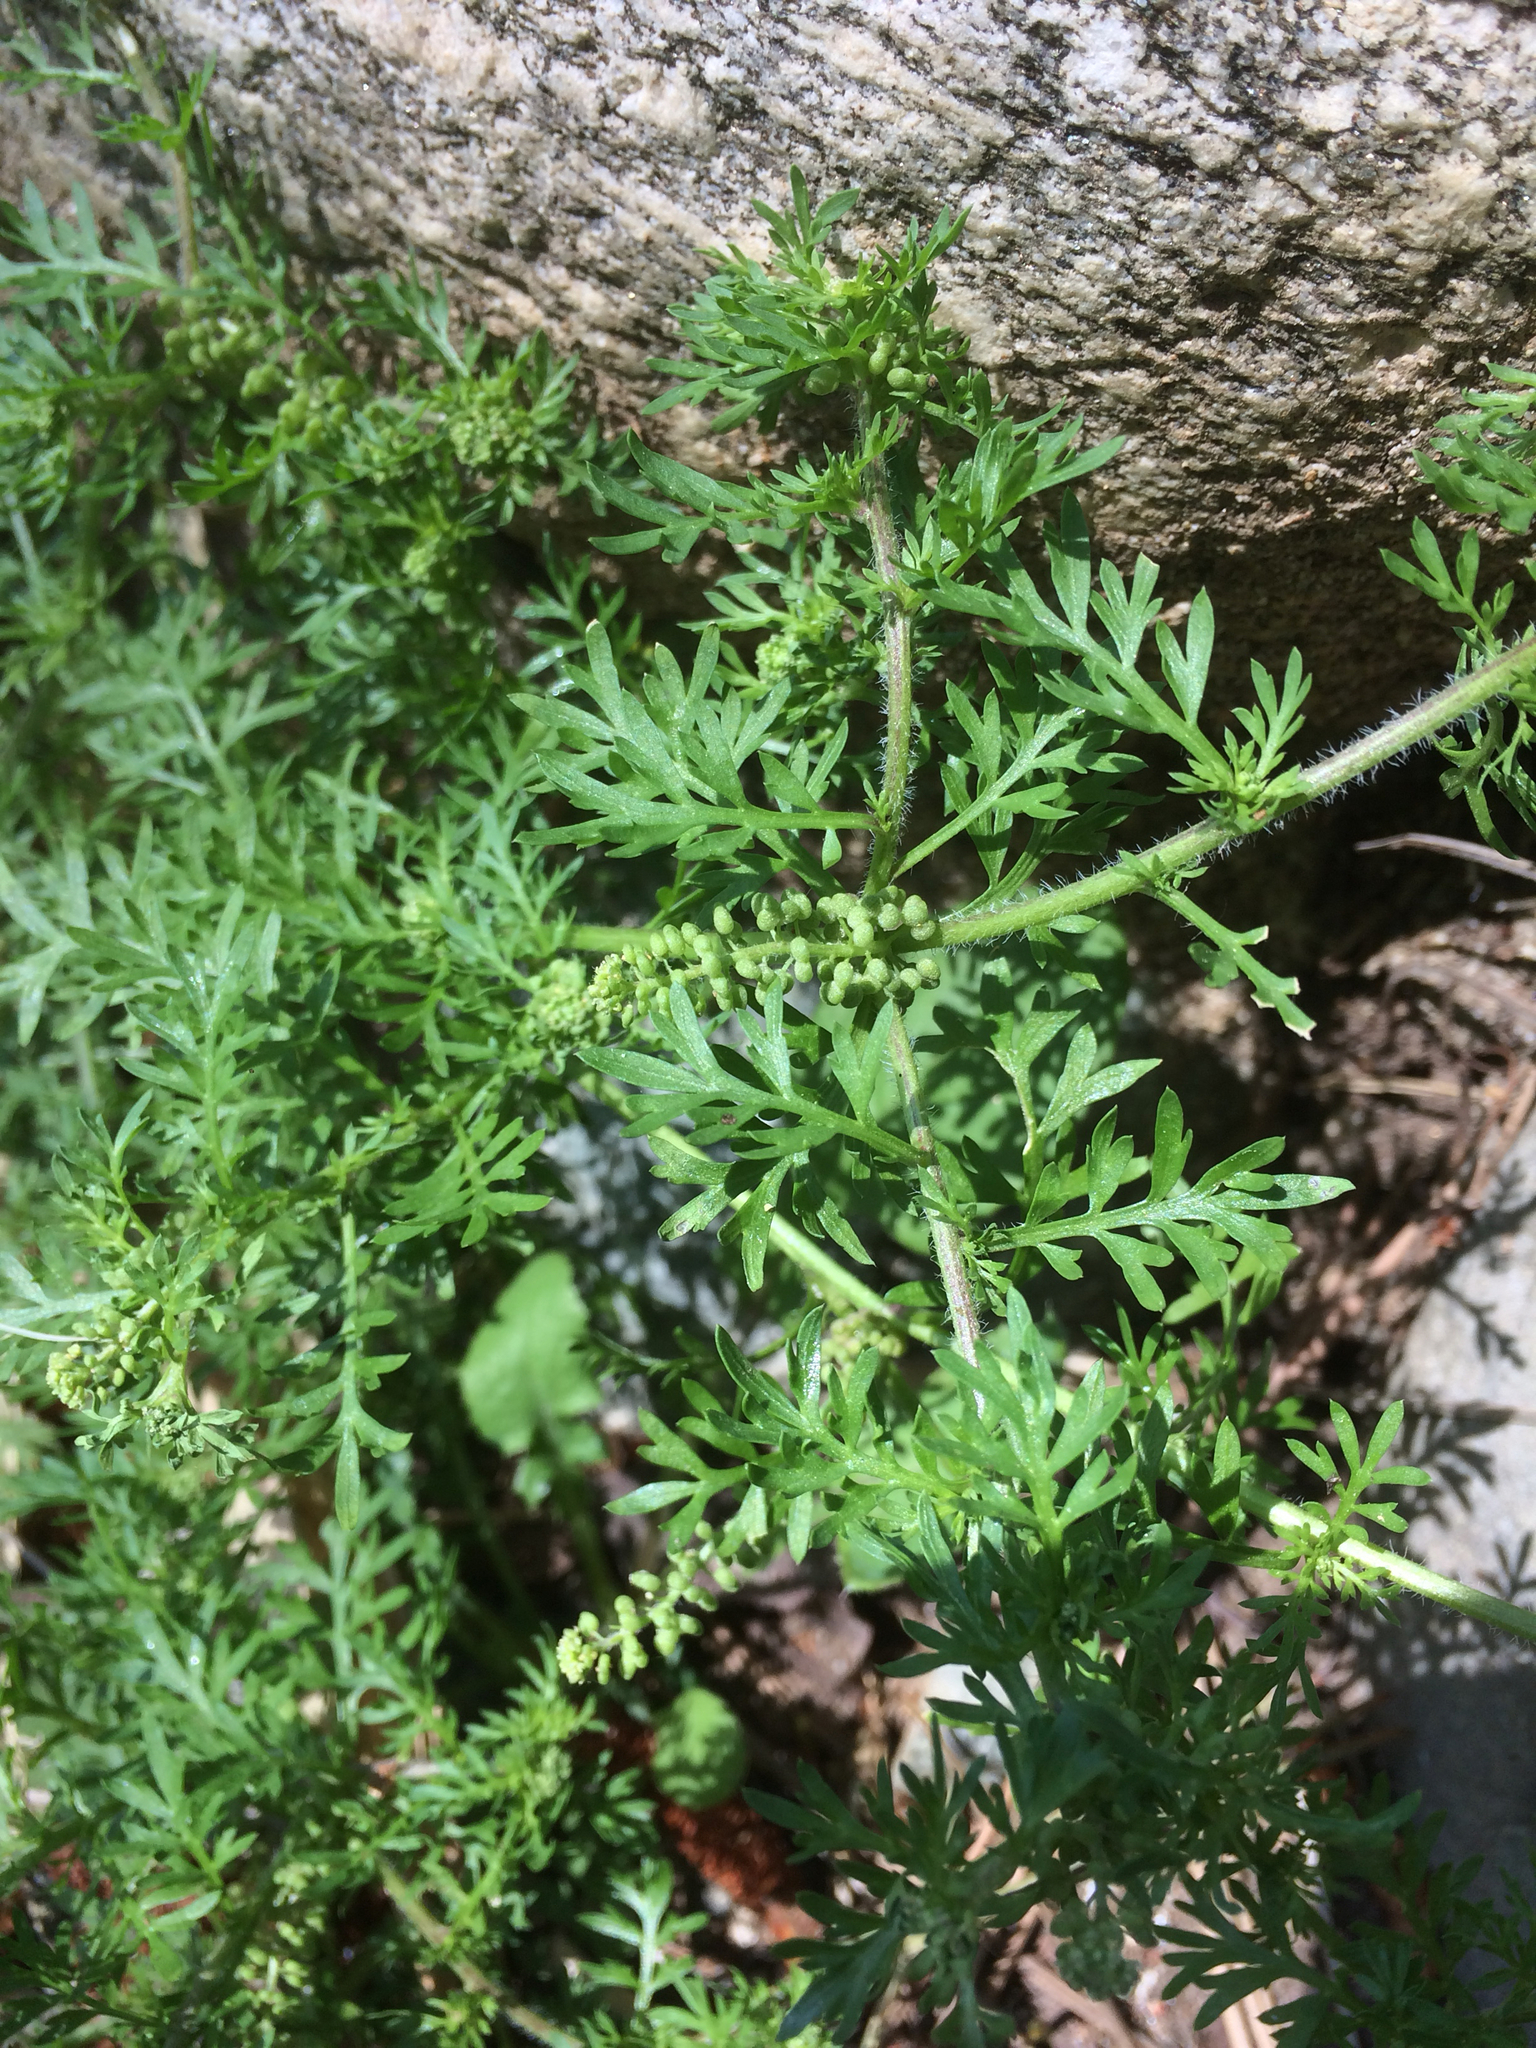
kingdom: Plantae
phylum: Tracheophyta
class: Magnoliopsida
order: Brassicales
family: Brassicaceae
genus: Lepidium
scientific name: Lepidium didymum
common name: Lesser swinecress
